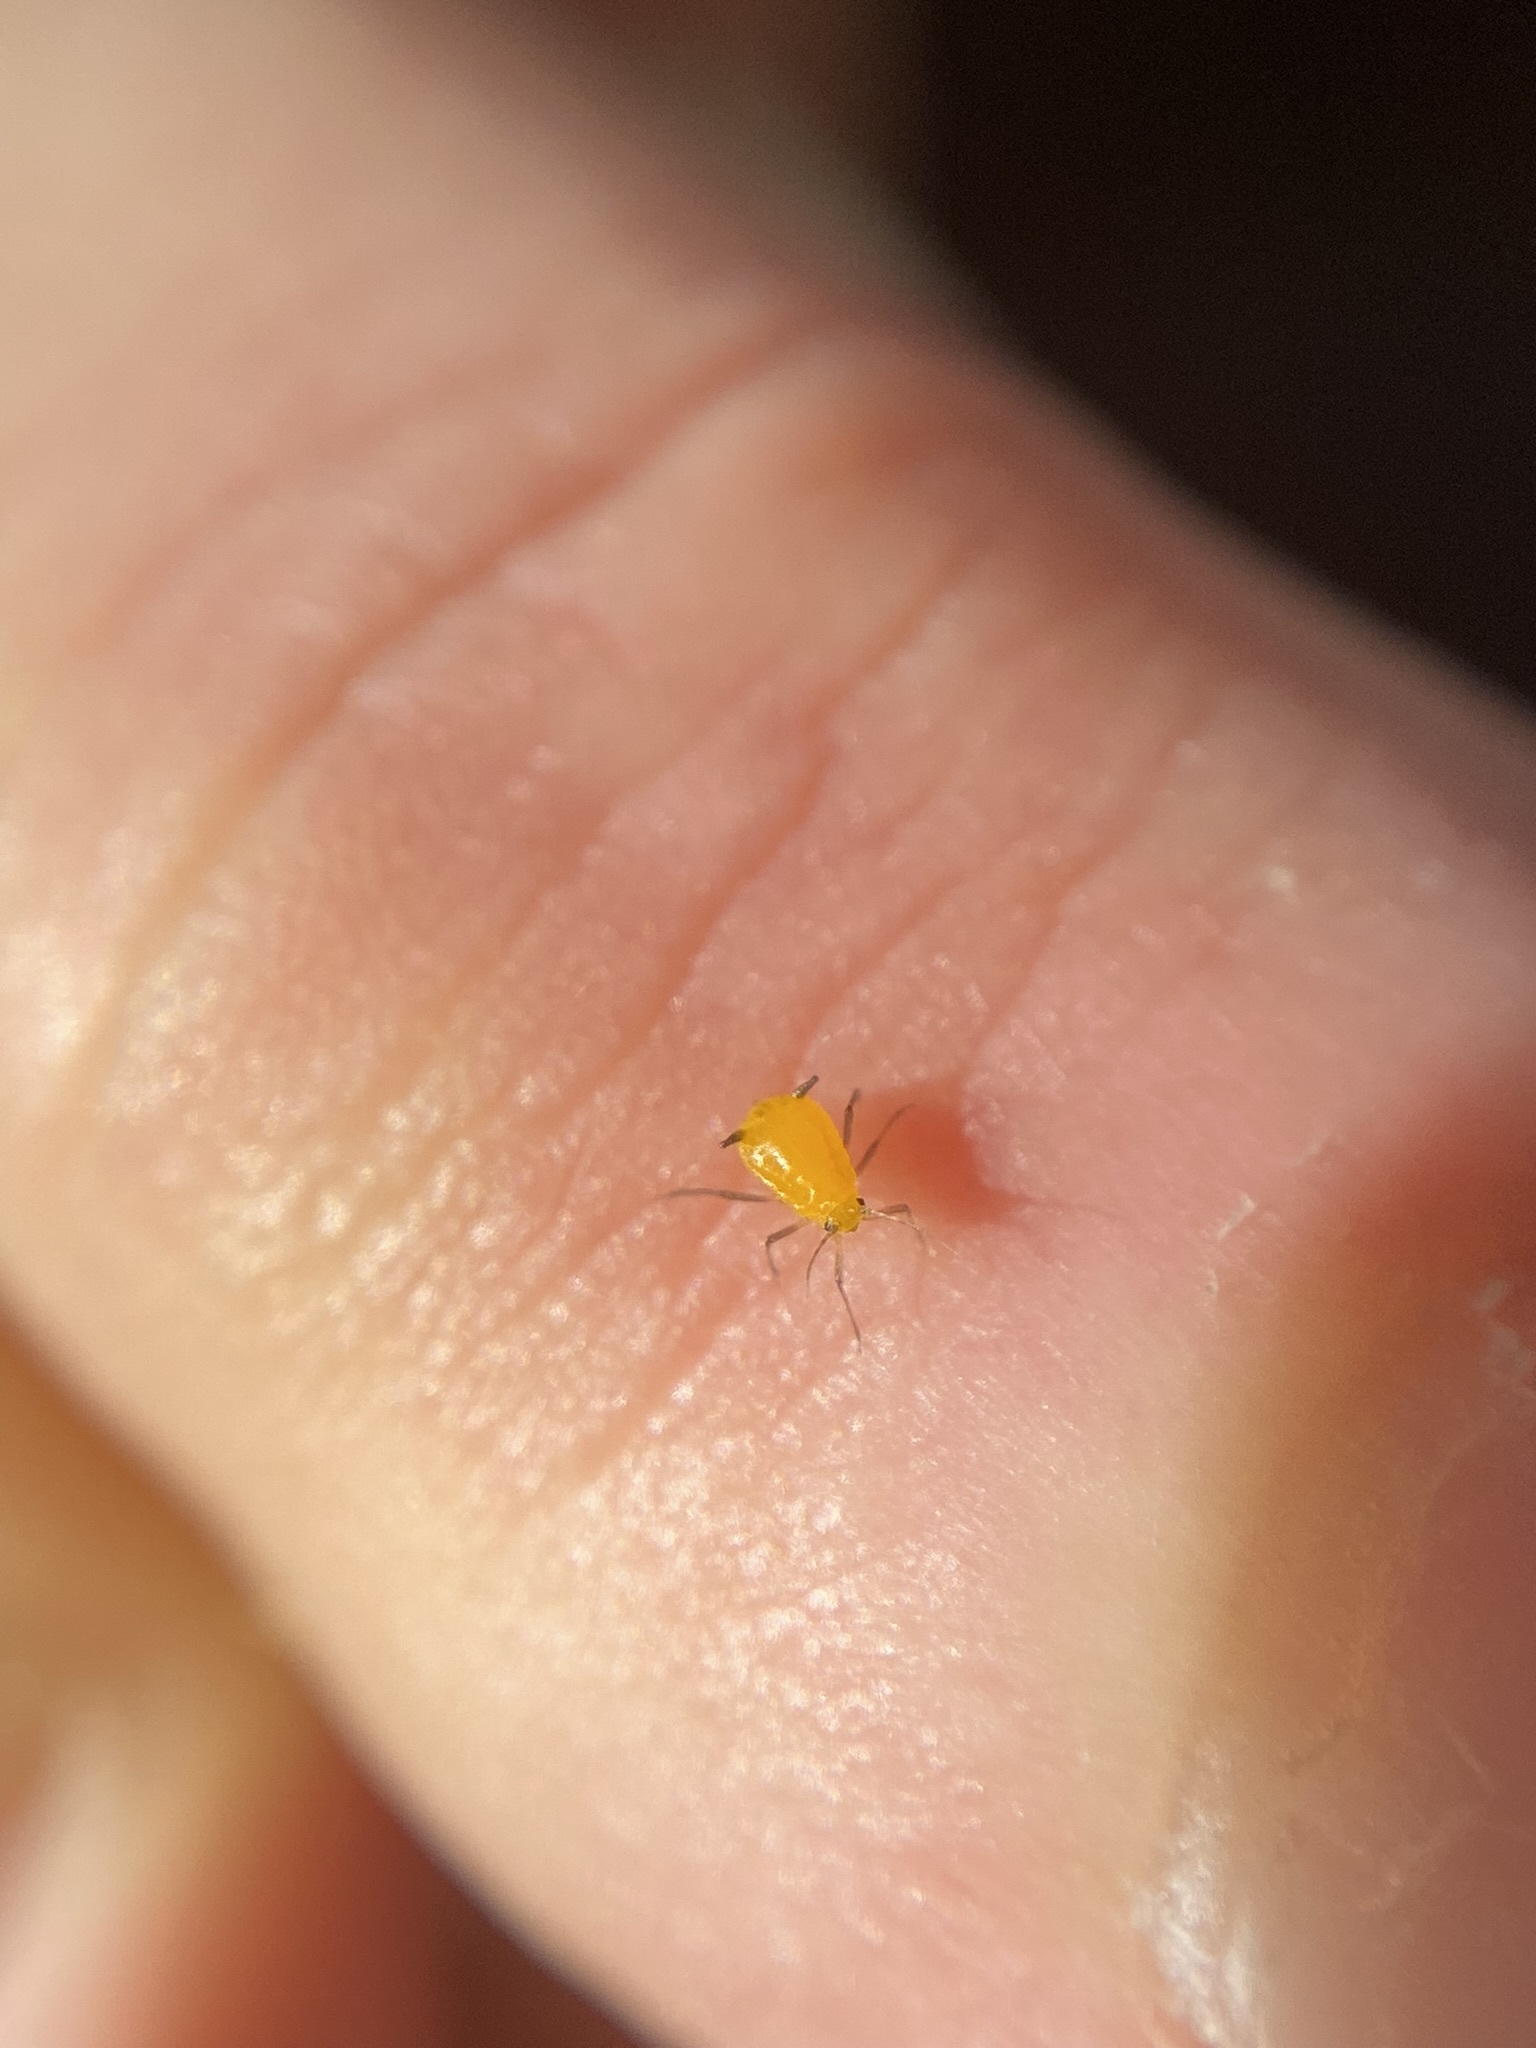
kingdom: Animalia
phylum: Arthropoda
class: Insecta
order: Hemiptera
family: Aphididae
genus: Aphis
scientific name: Aphis nerii
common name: Oleander aphid
